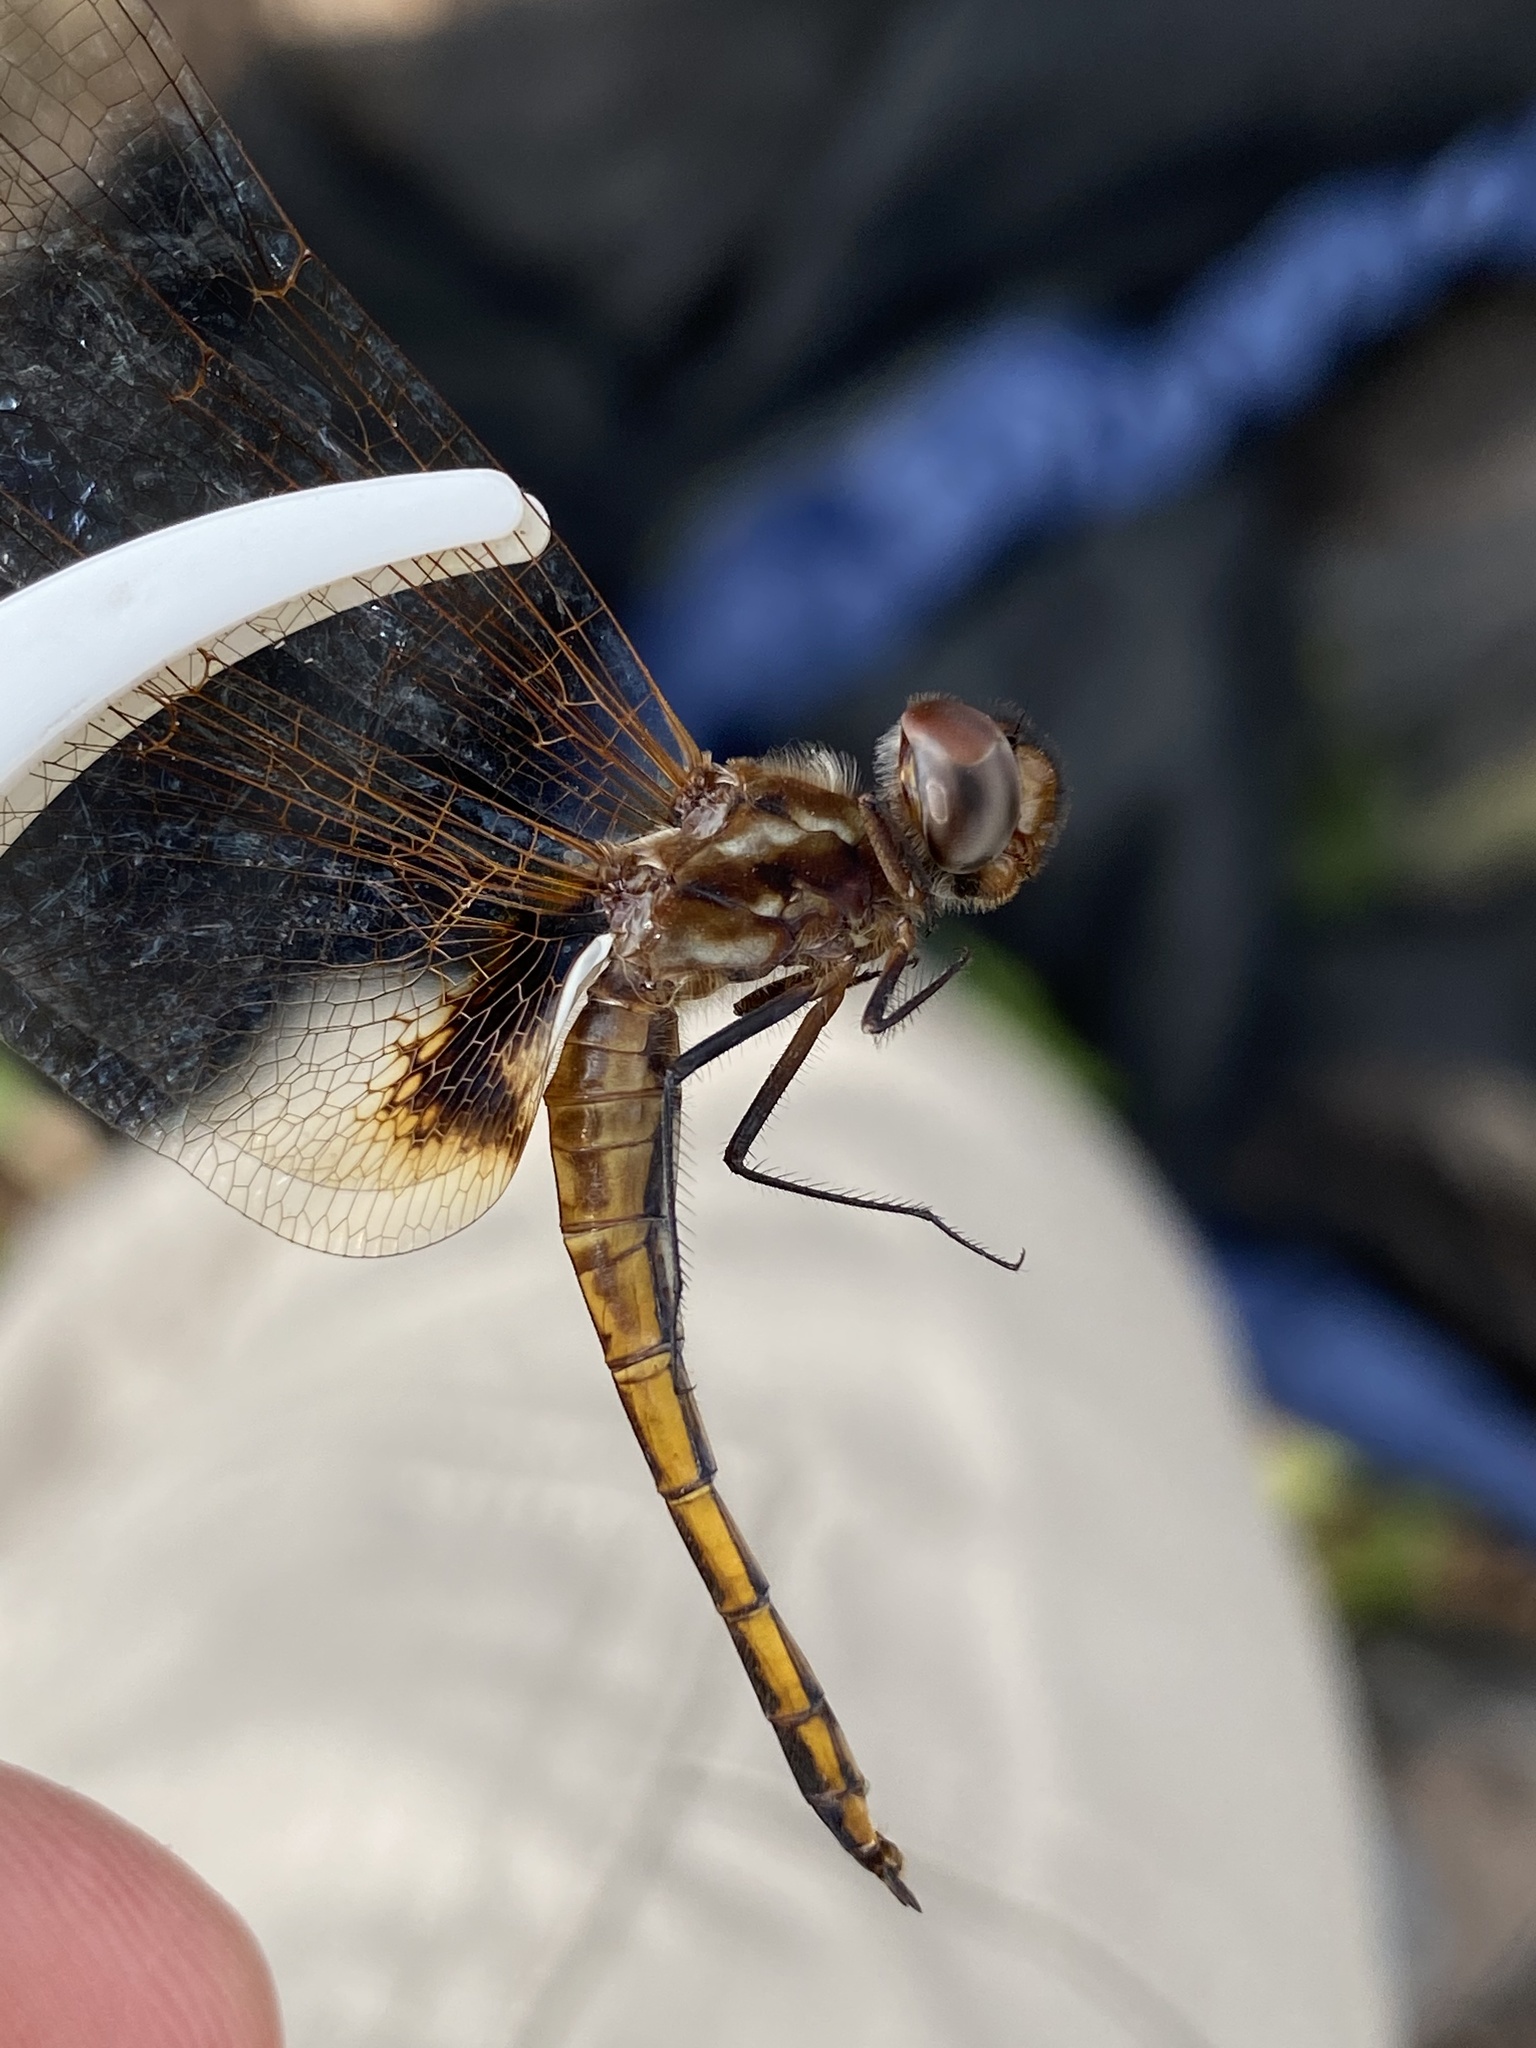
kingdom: Animalia
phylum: Arthropoda
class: Insecta
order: Odonata
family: Libellulidae
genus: Miathyria
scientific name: Miathyria marcella
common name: Hyacinth glider
